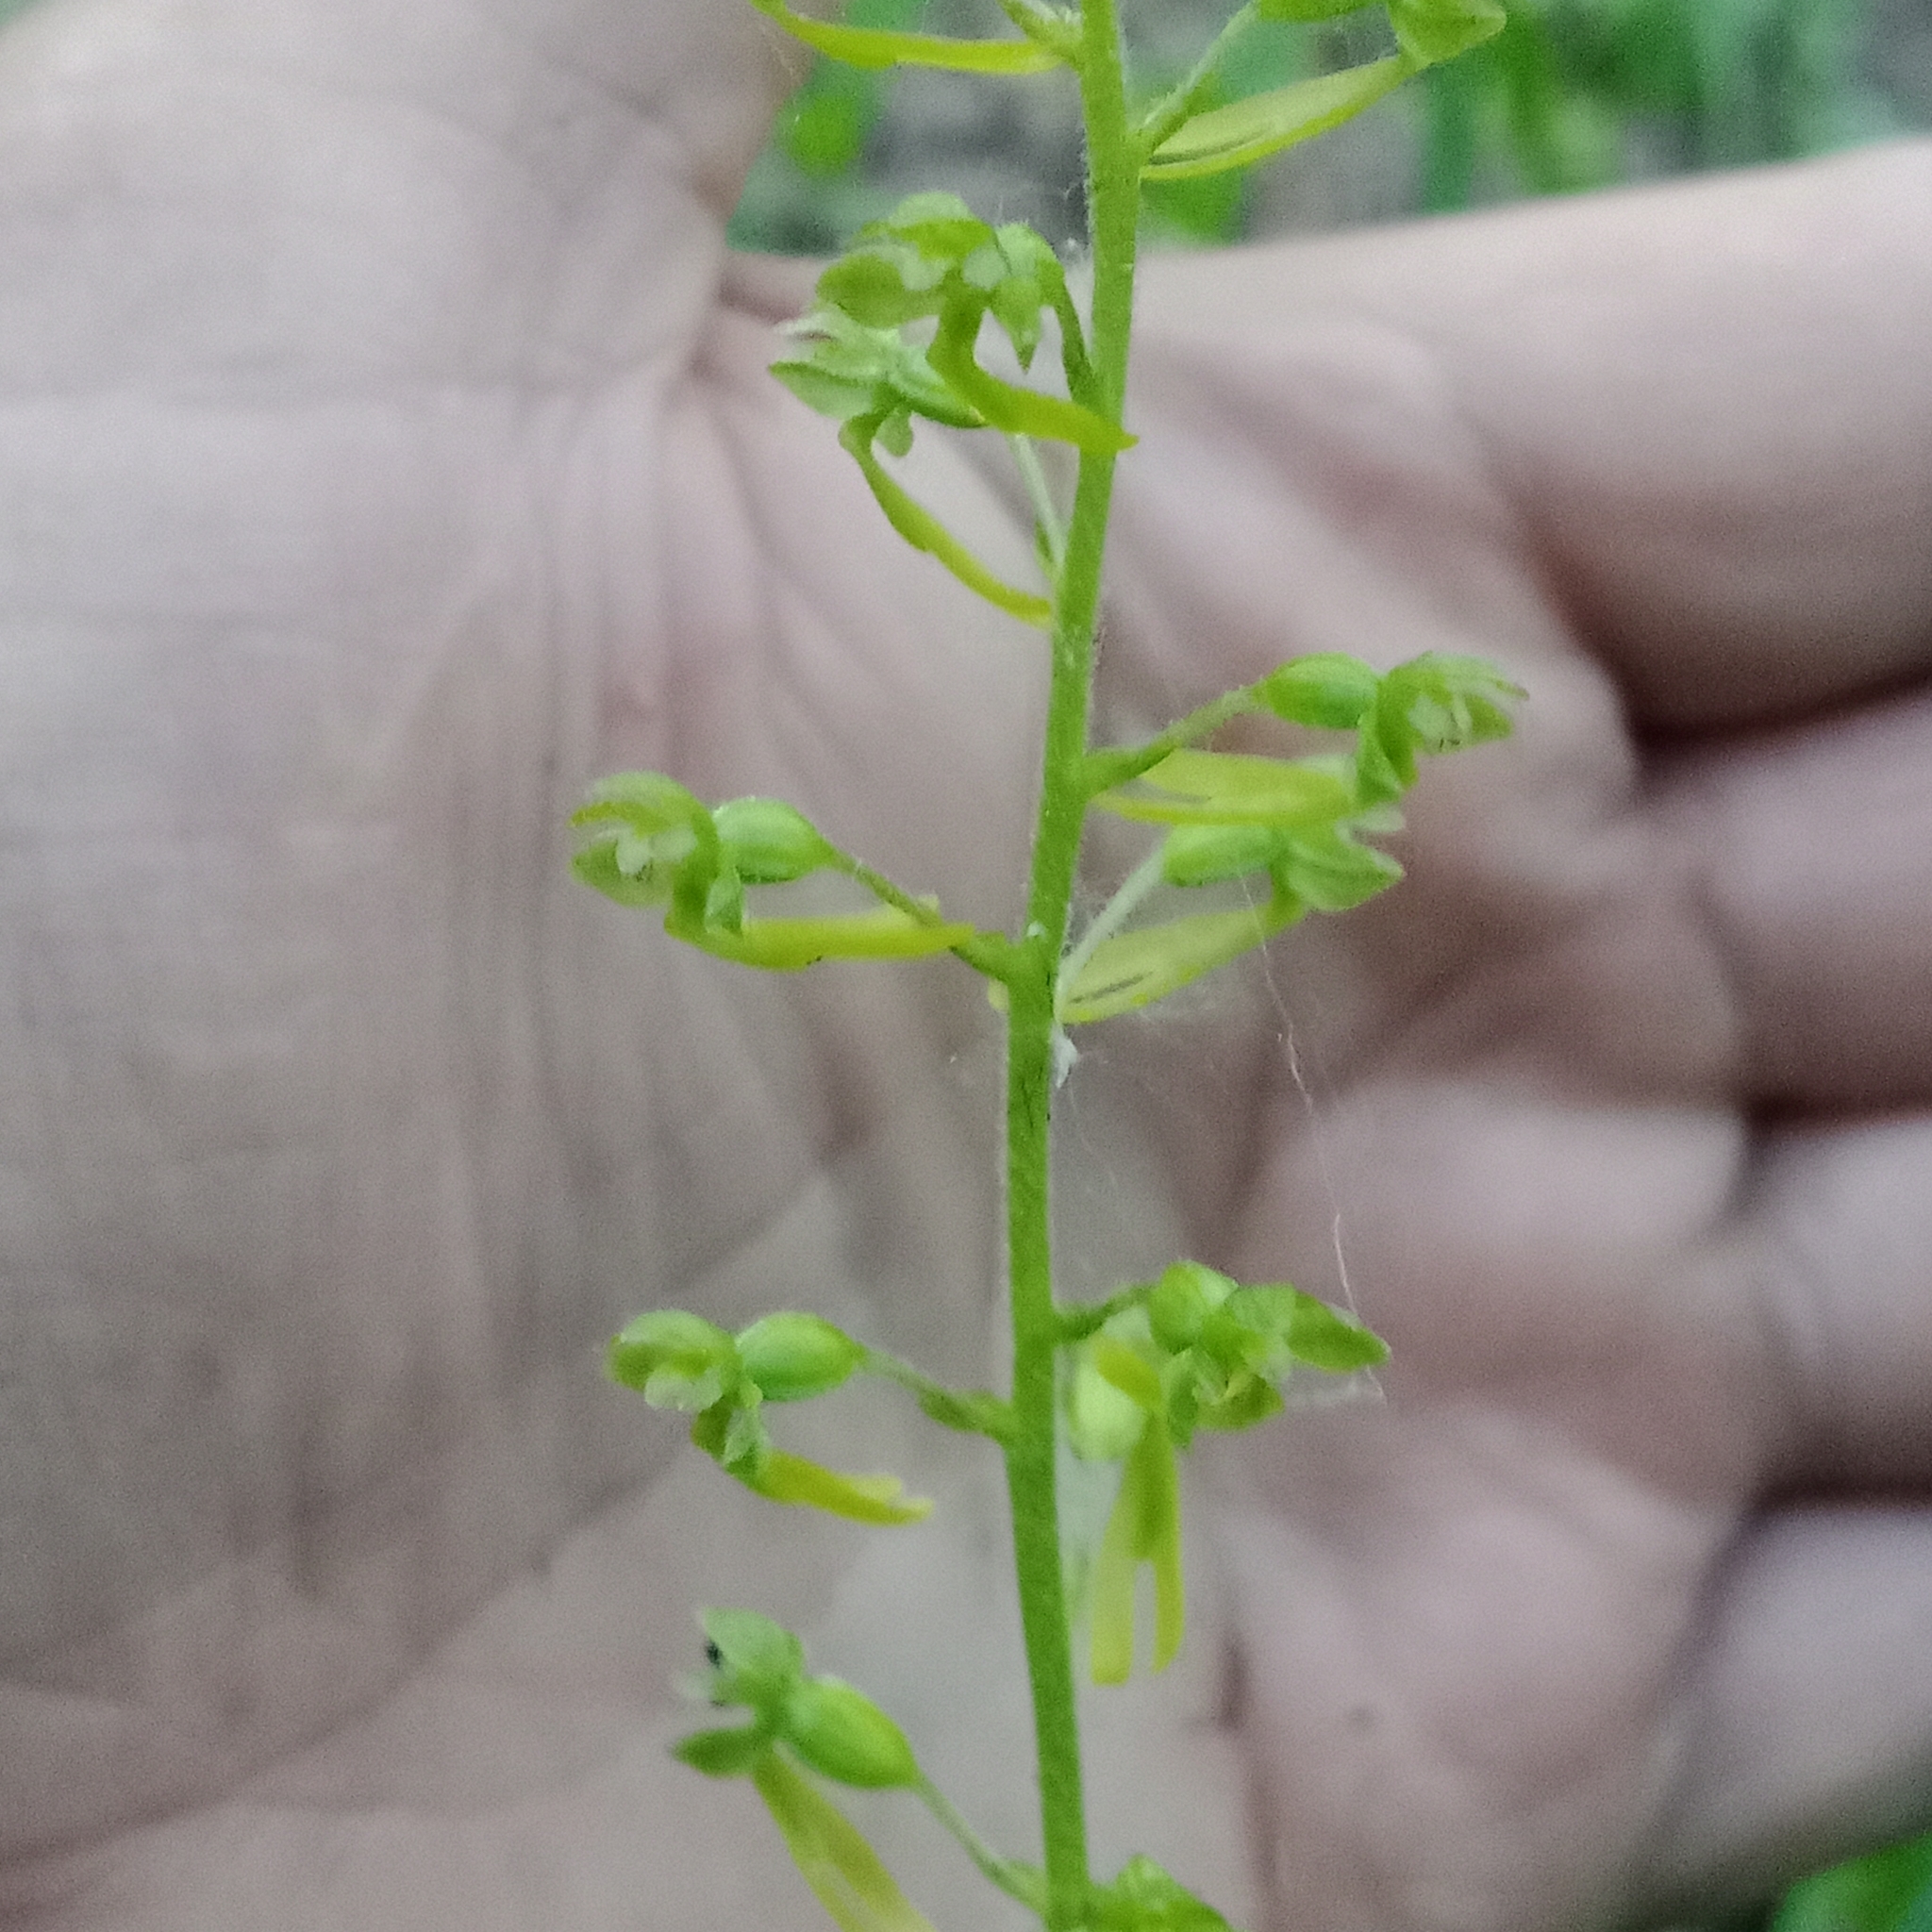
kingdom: Plantae
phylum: Tracheophyta
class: Liliopsida
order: Asparagales
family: Orchidaceae
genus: Neottia
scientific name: Neottia ovata
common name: Common twayblade
